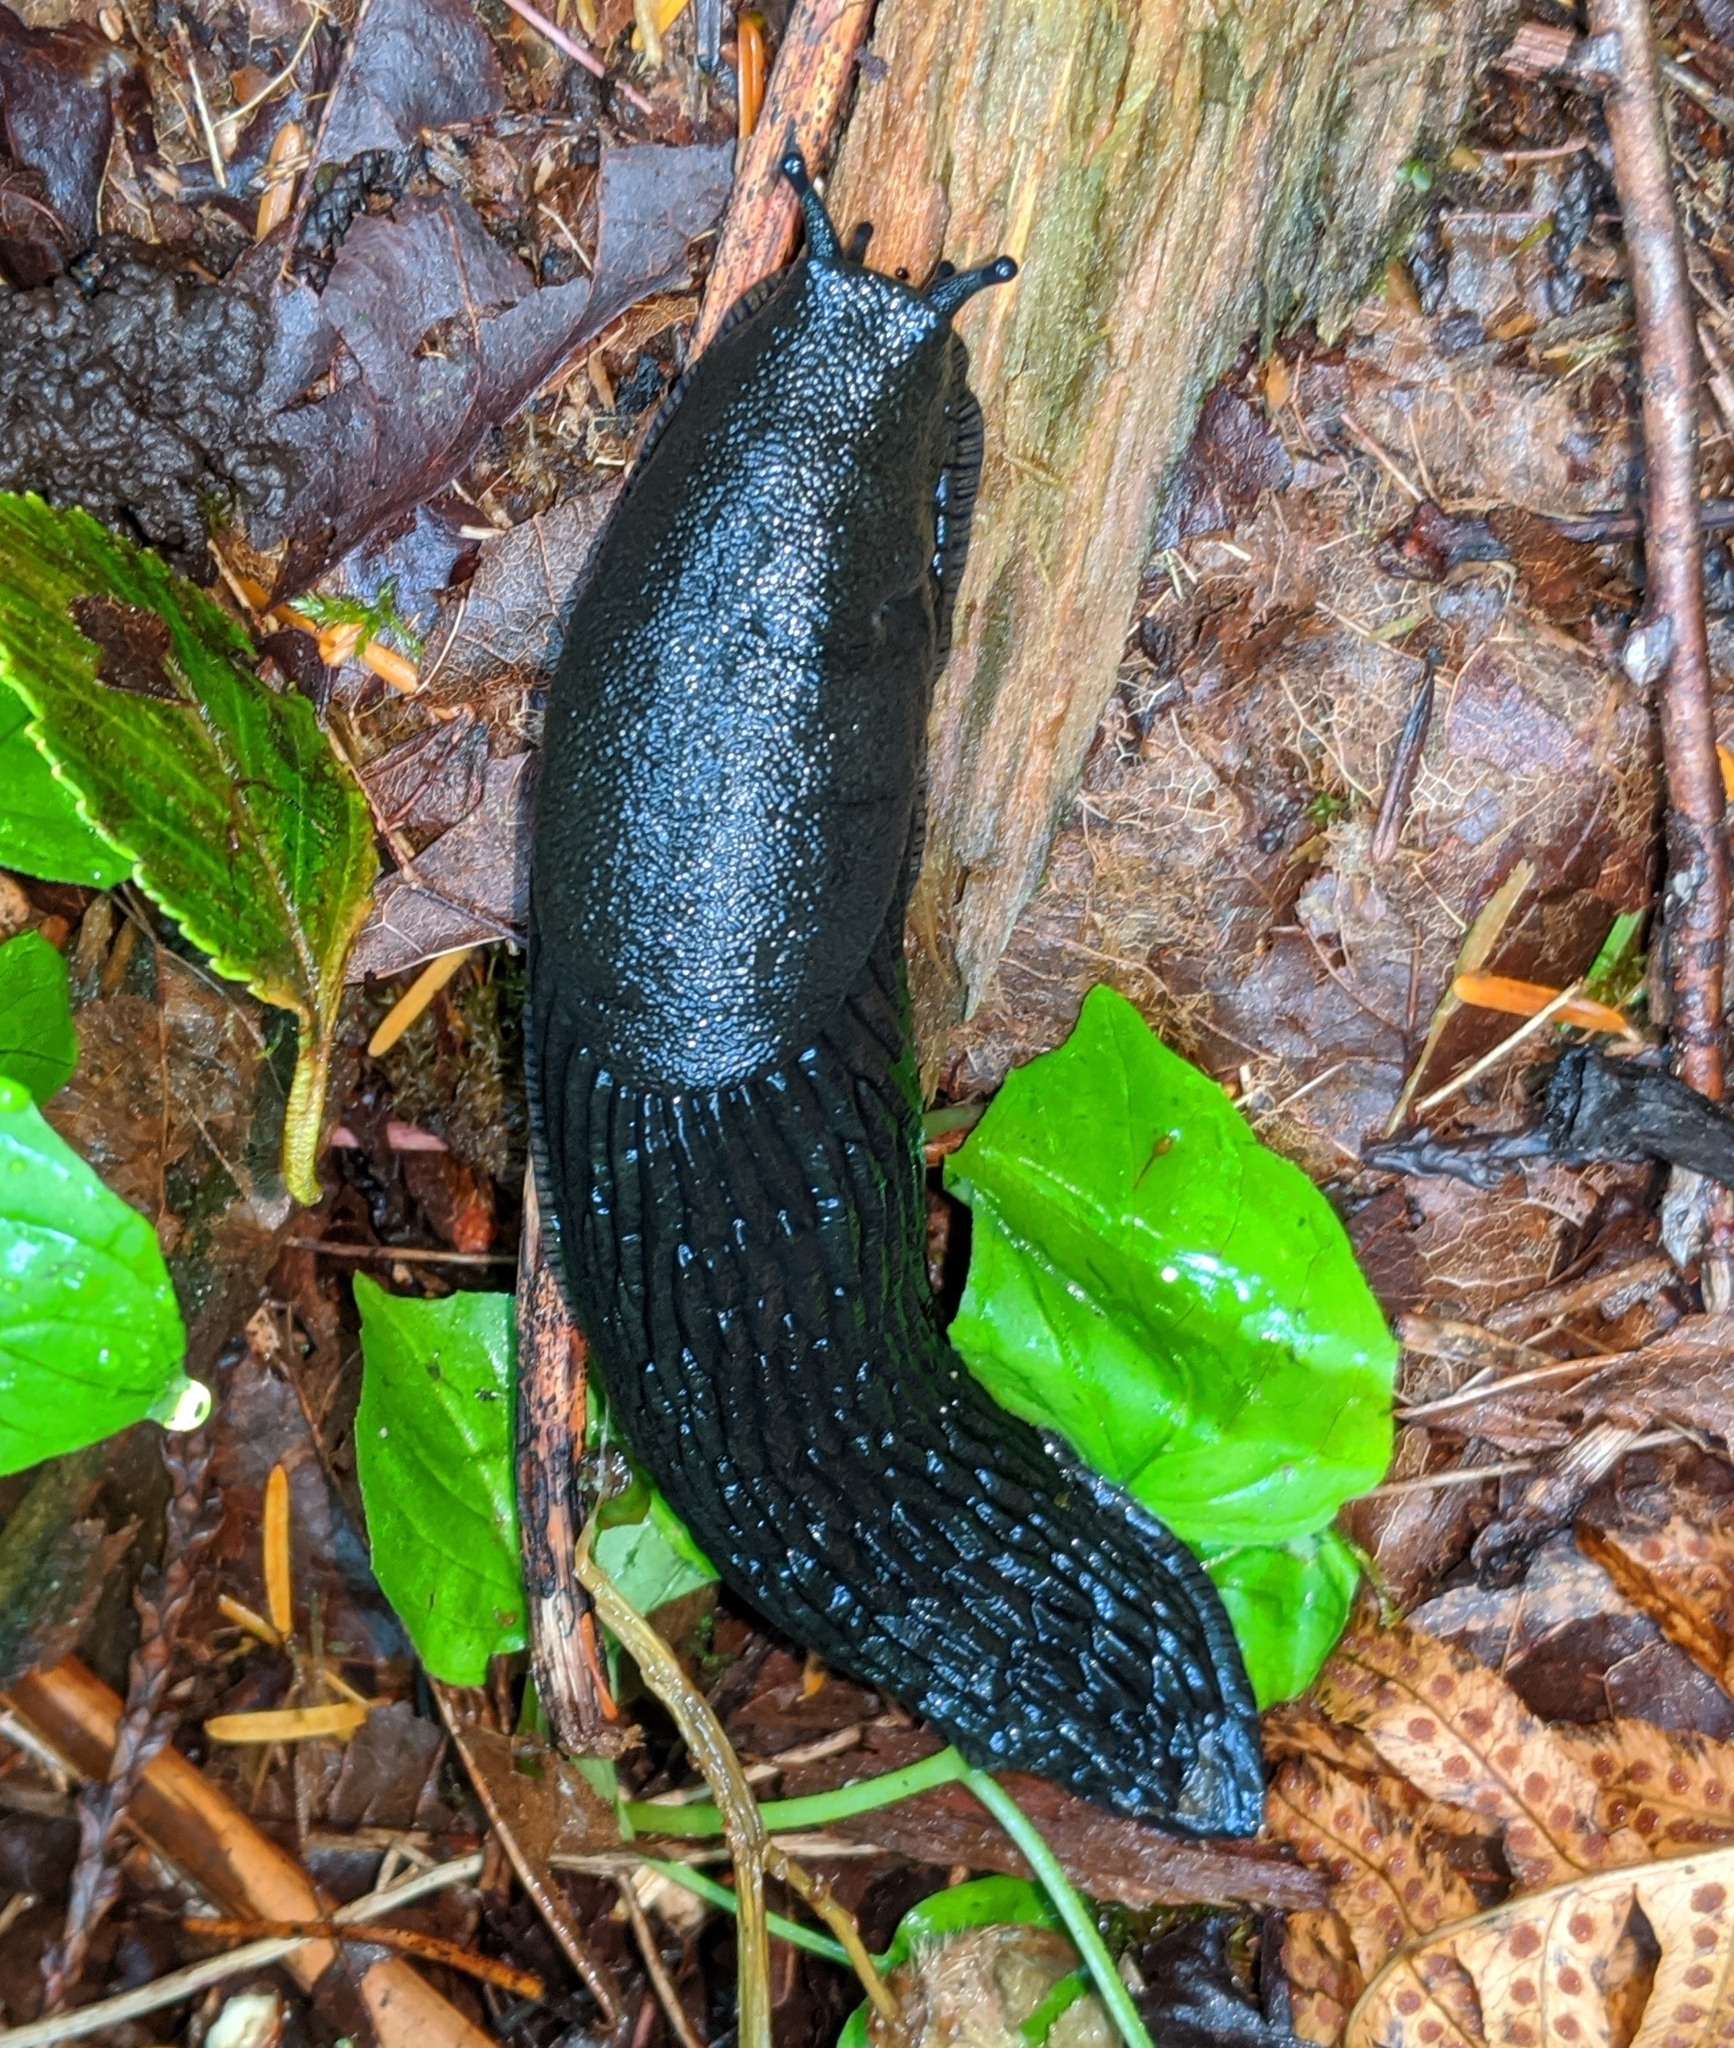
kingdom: Animalia
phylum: Mollusca
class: Gastropoda
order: Stylommatophora
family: Arionidae
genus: Arion
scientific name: Arion rufus
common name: Chocolate arion
